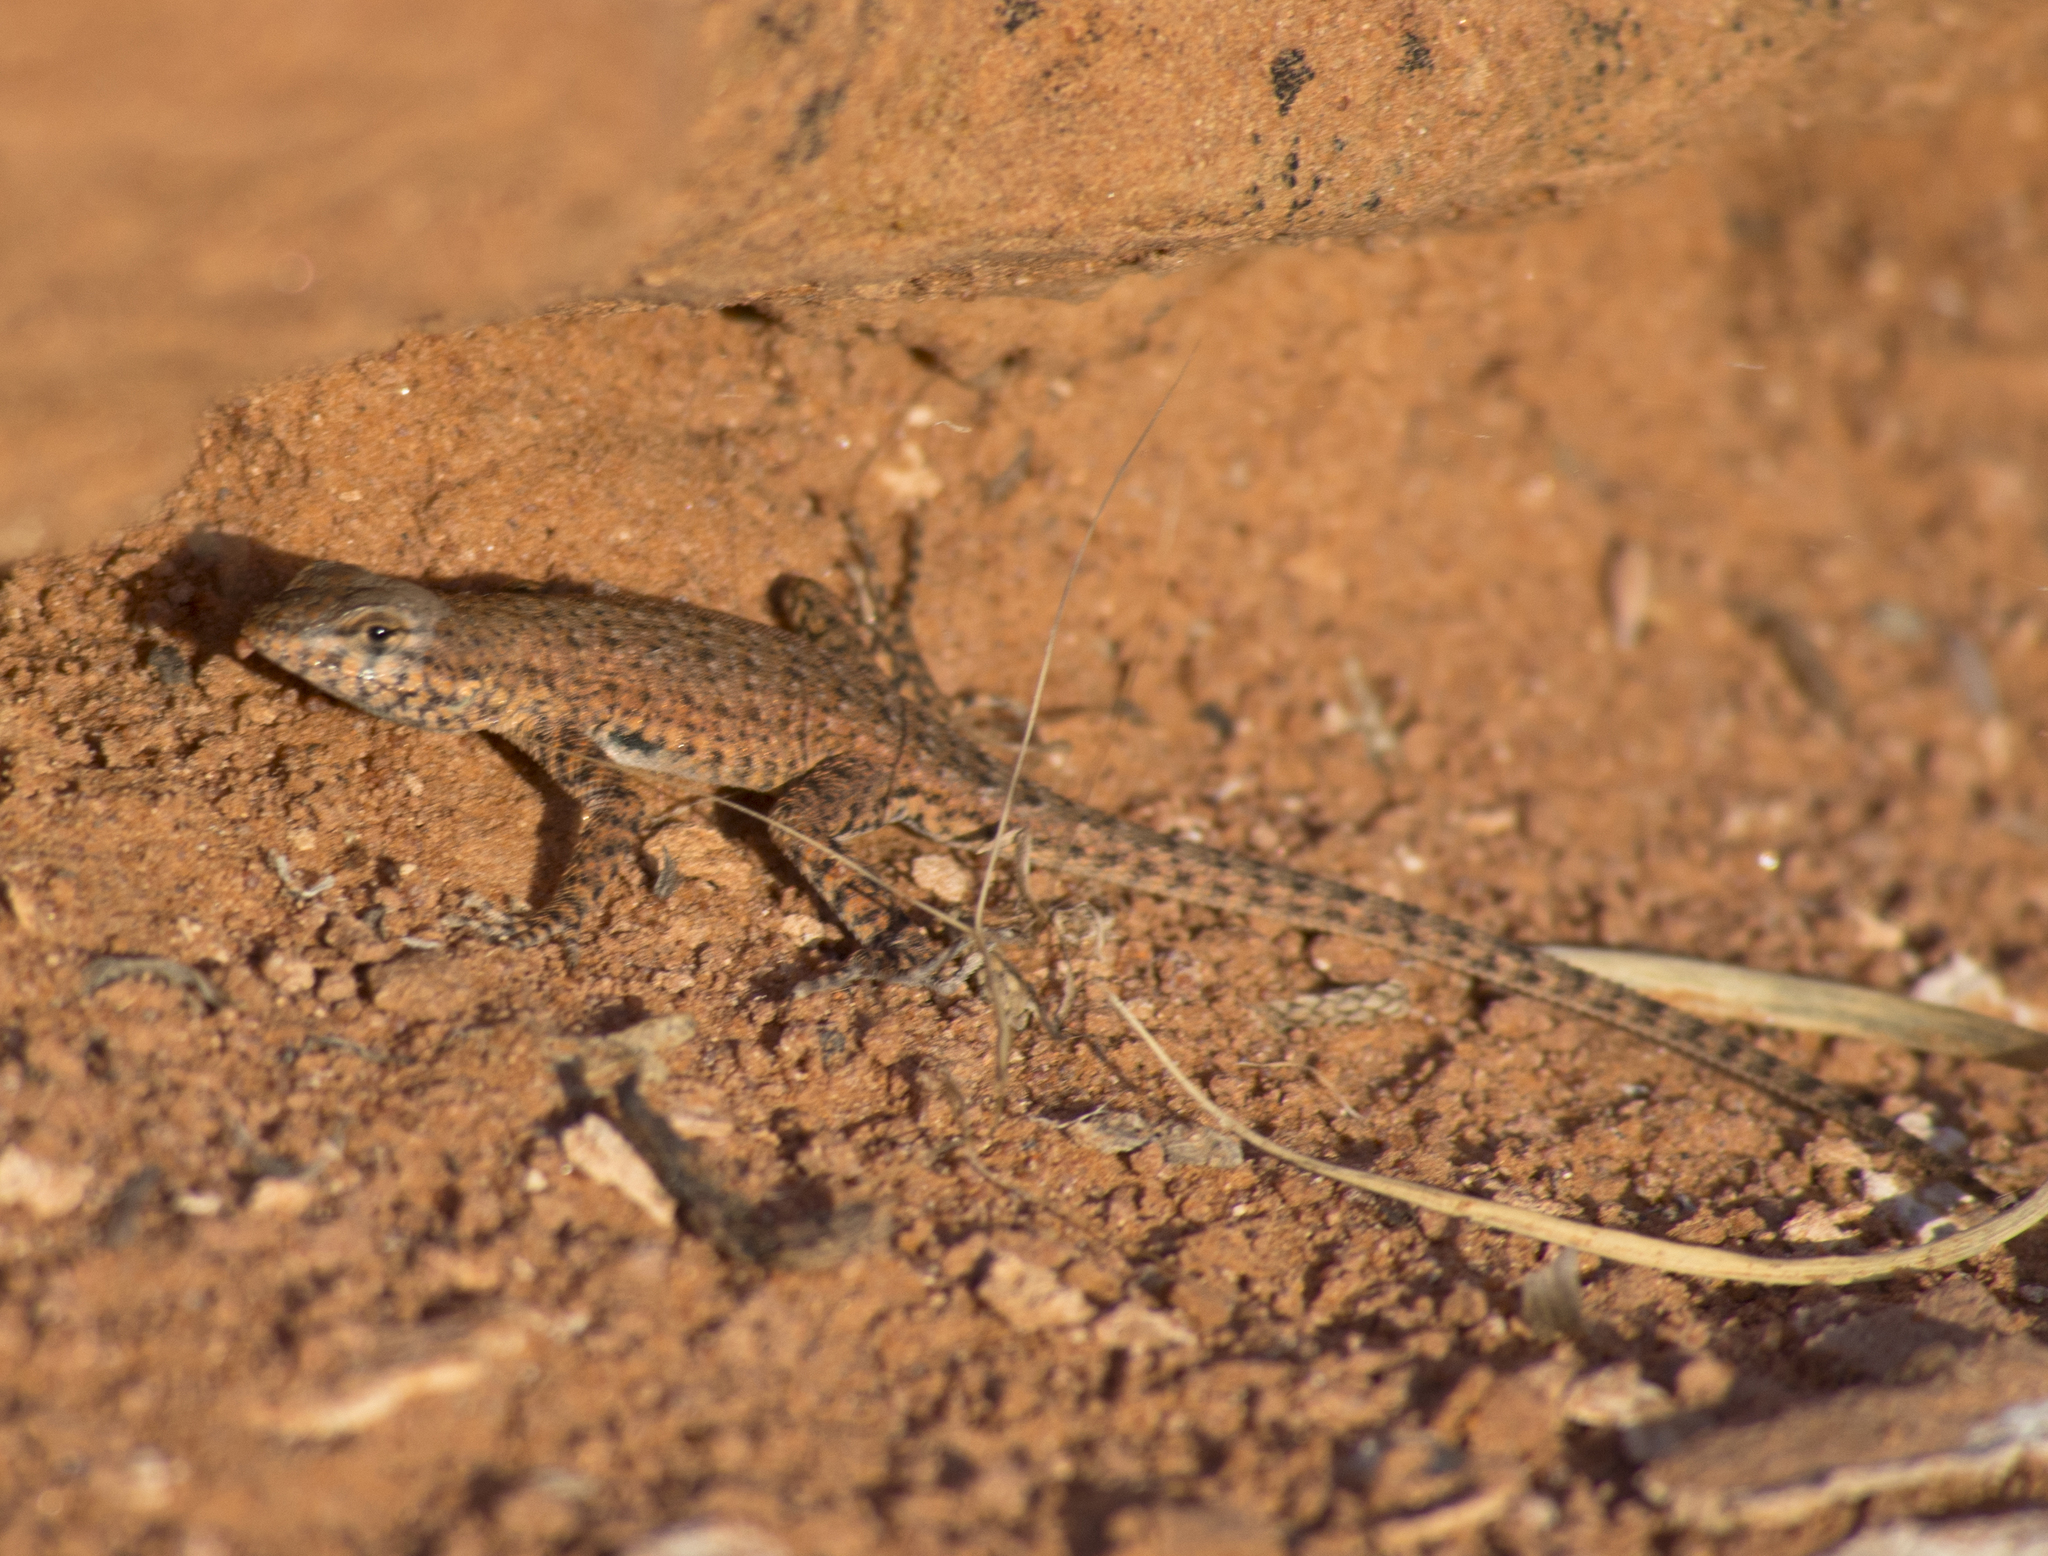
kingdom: Animalia
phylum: Chordata
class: Squamata
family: Phrynosomatidae
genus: Uta
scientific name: Uta stansburiana
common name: Side-blotched lizard
